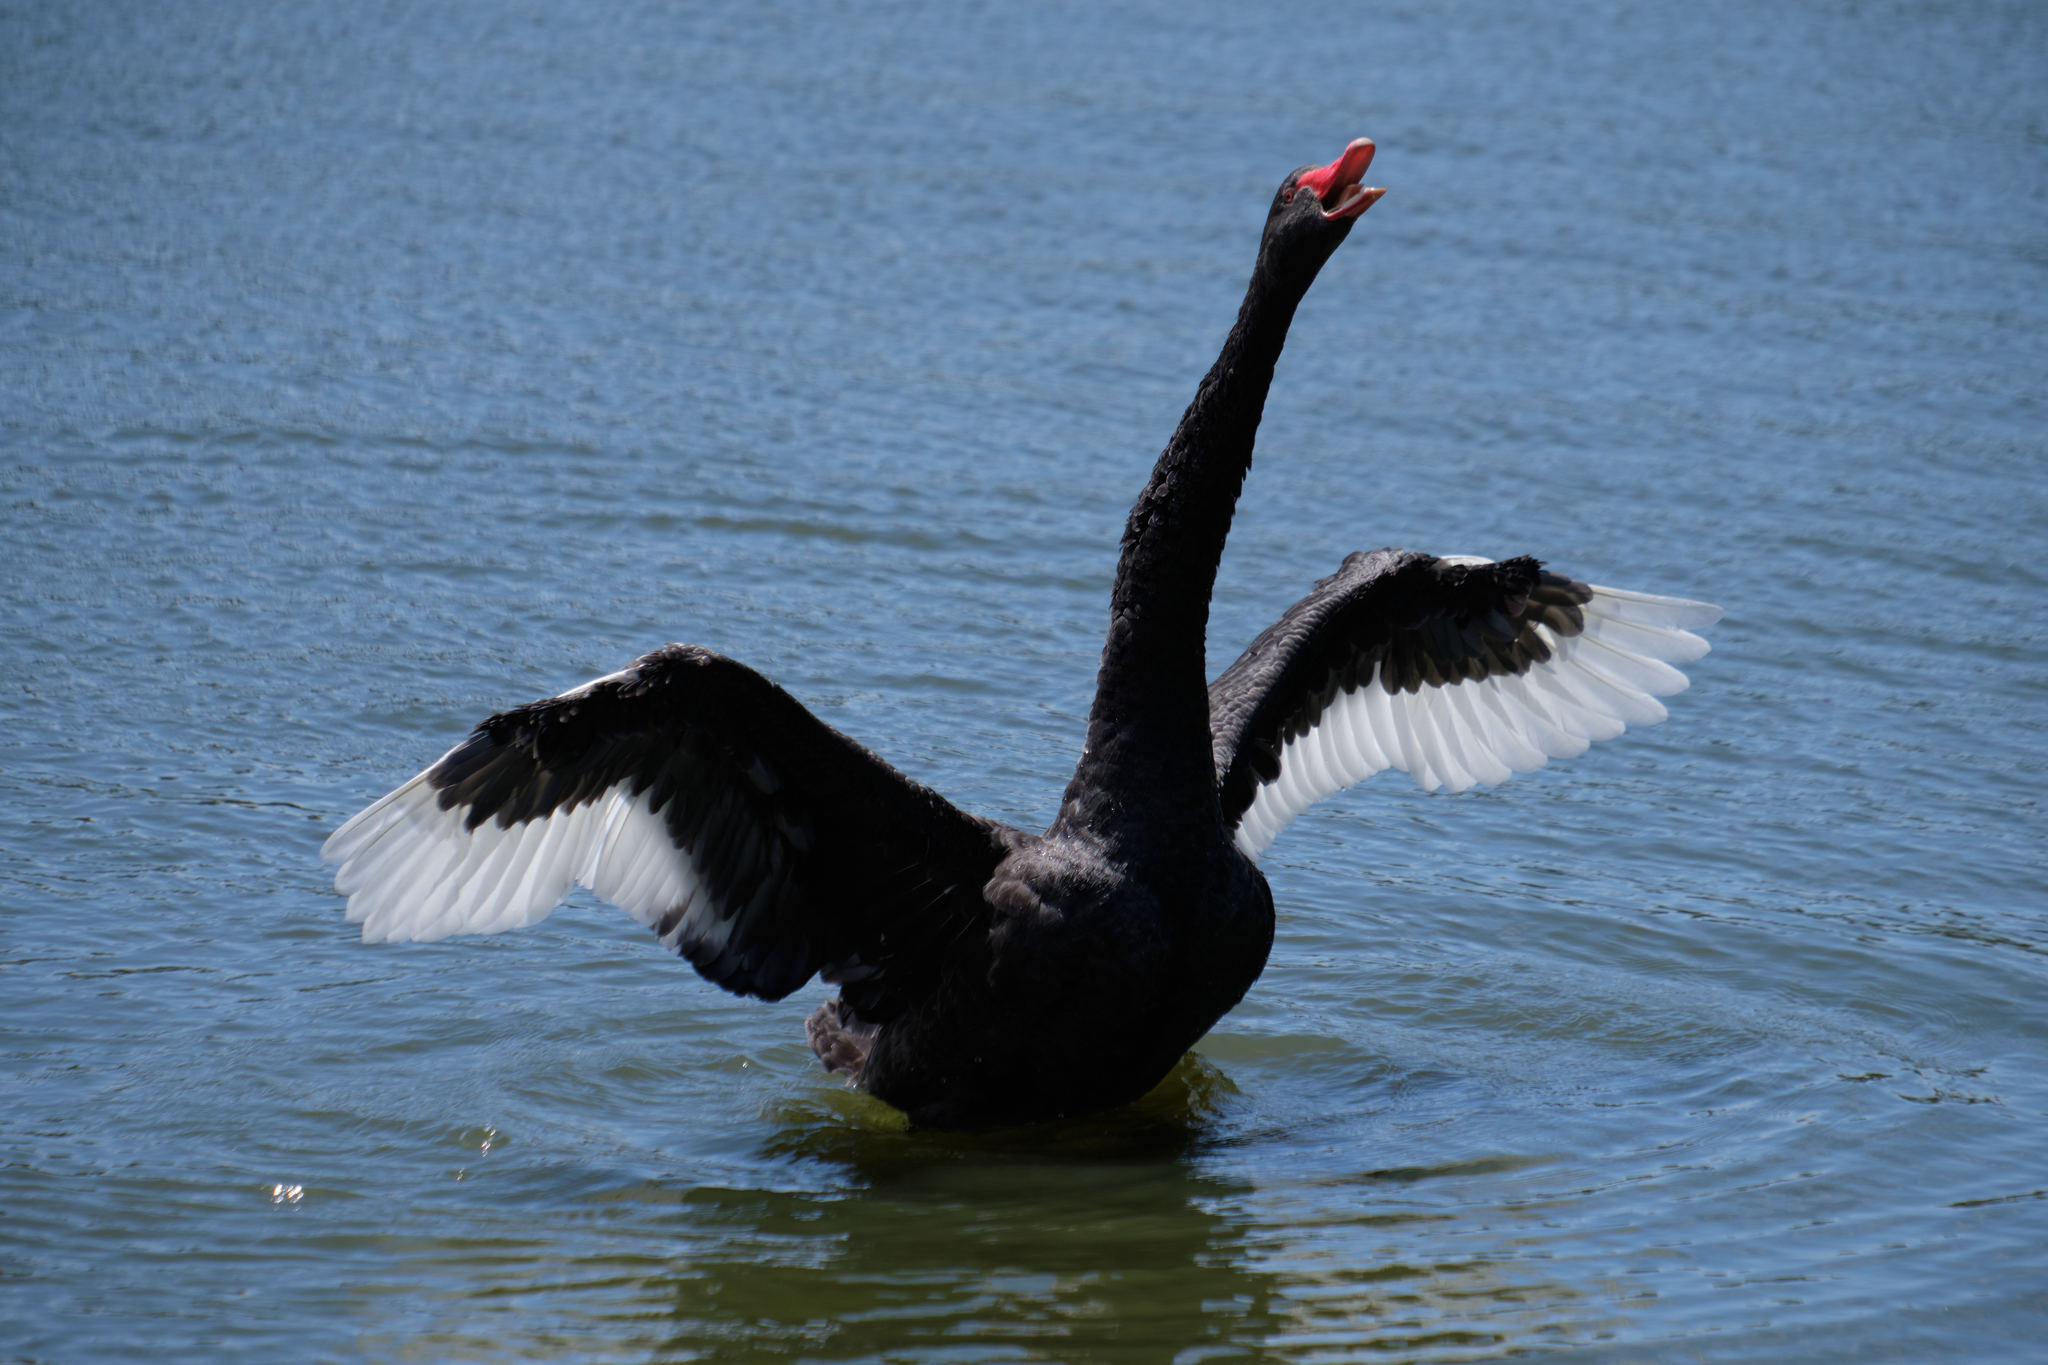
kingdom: Animalia
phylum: Chordata
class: Aves
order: Anseriformes
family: Anatidae
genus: Cygnus
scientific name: Cygnus atratus
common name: Black swan
